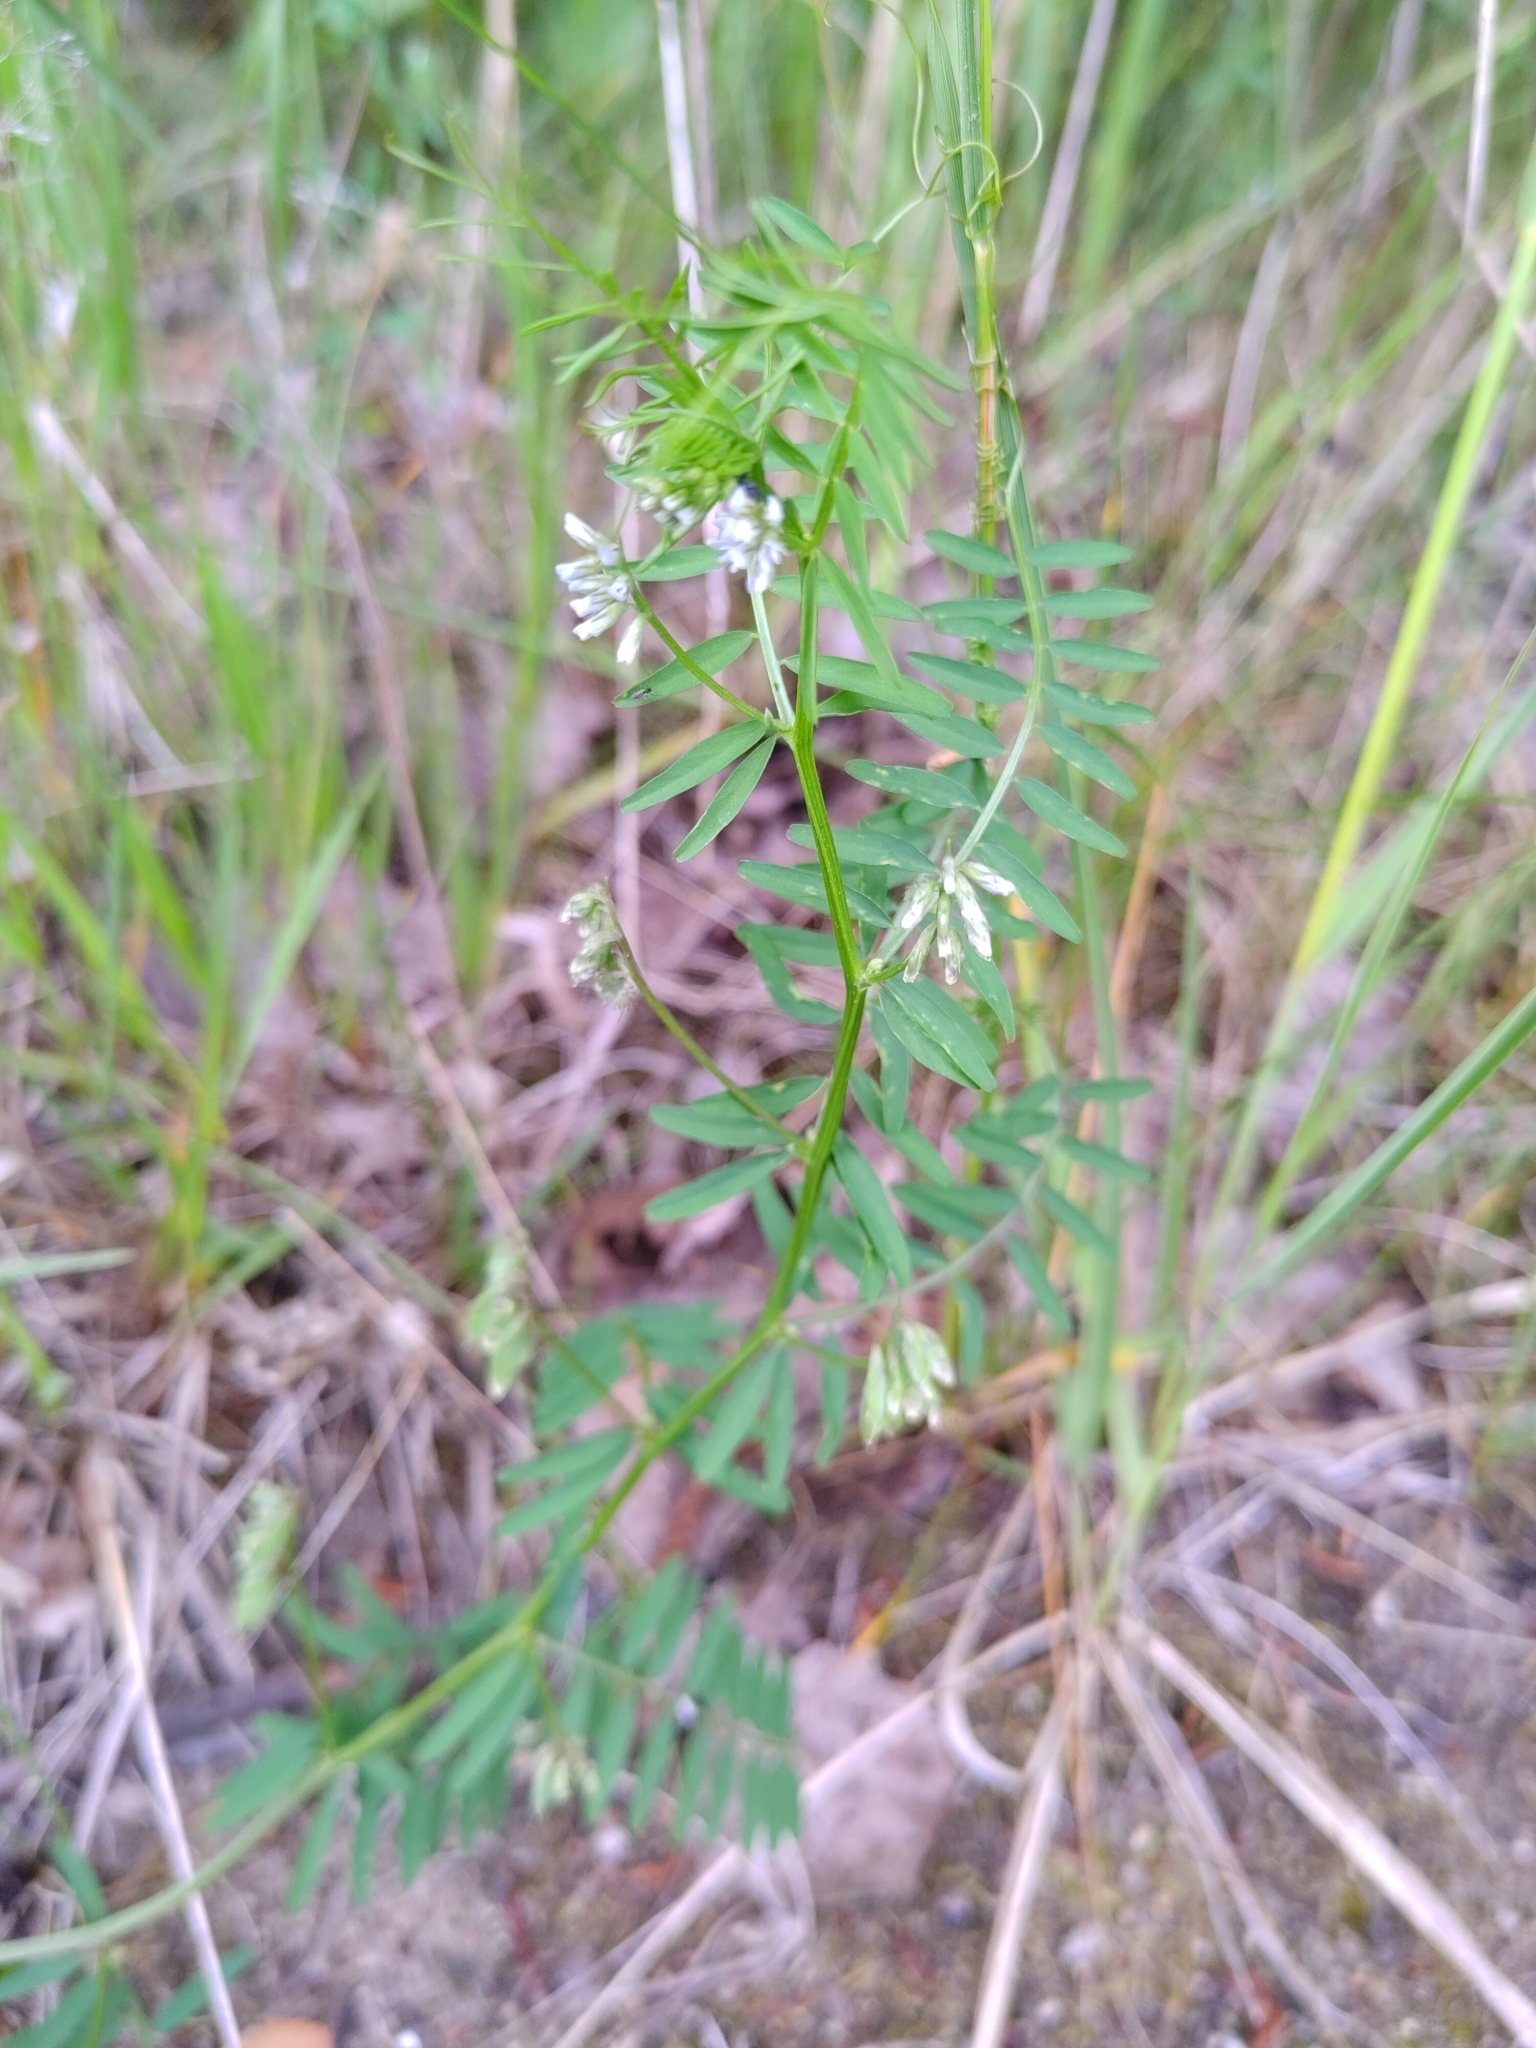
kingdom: Plantae
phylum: Tracheophyta
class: Magnoliopsida
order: Fabales
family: Fabaceae
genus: Vicia
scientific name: Vicia hirsuta
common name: Tiny vetch
